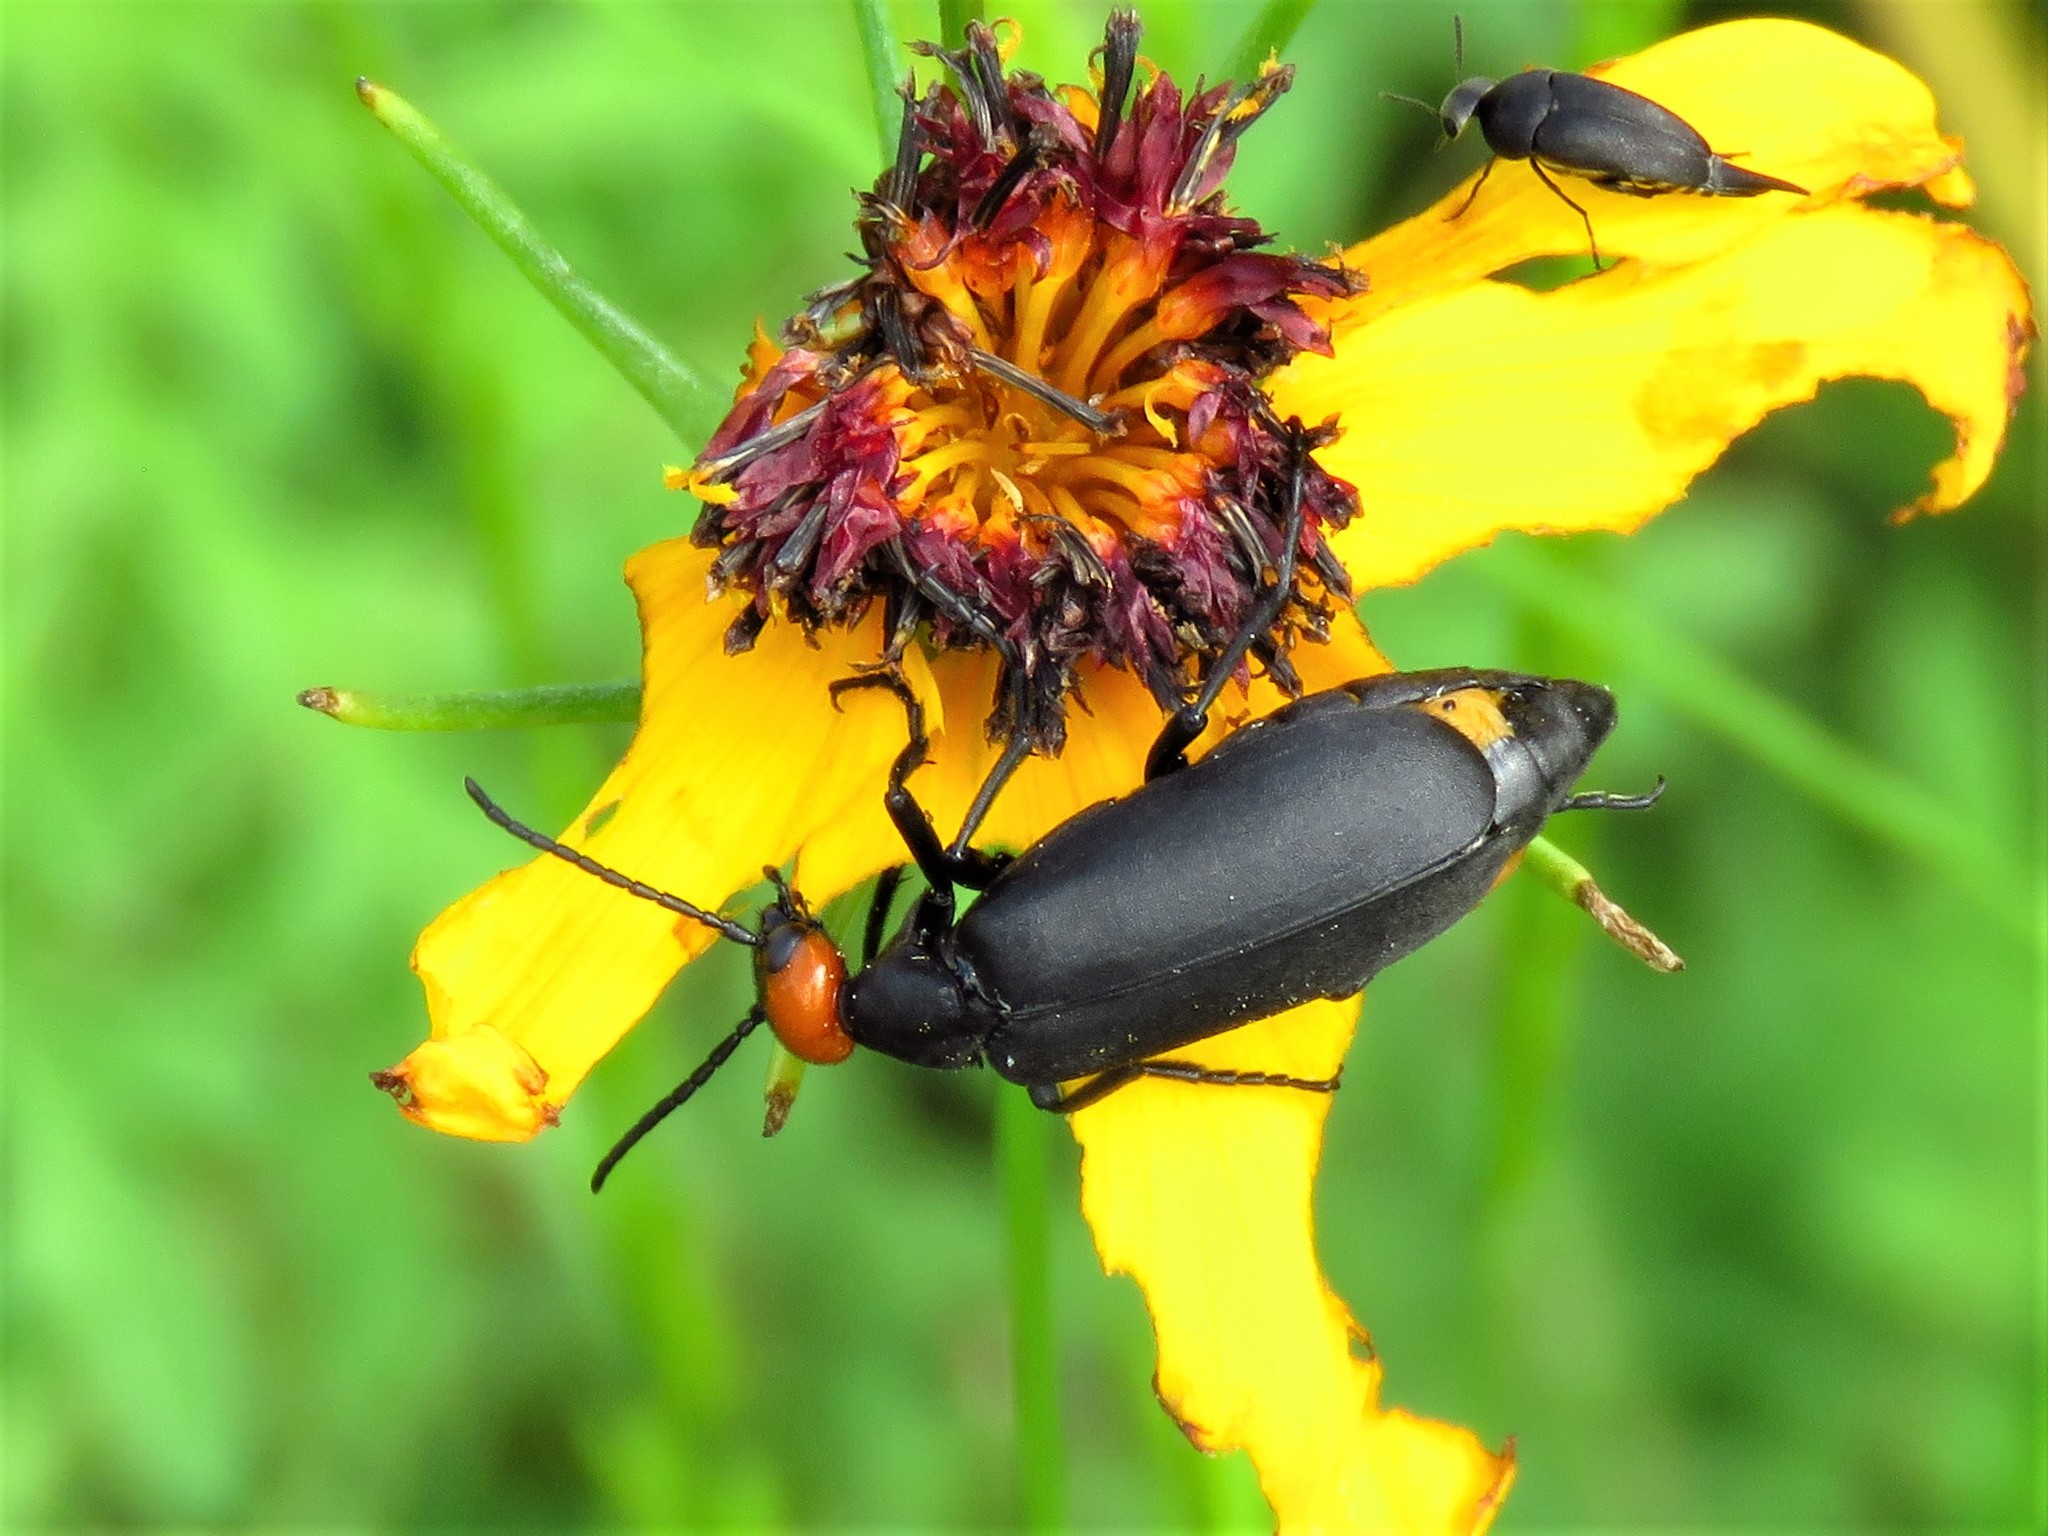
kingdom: Animalia
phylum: Arthropoda
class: Insecta
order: Coleoptera
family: Meloidae
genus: Epicauta
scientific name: Epicauta atrata
